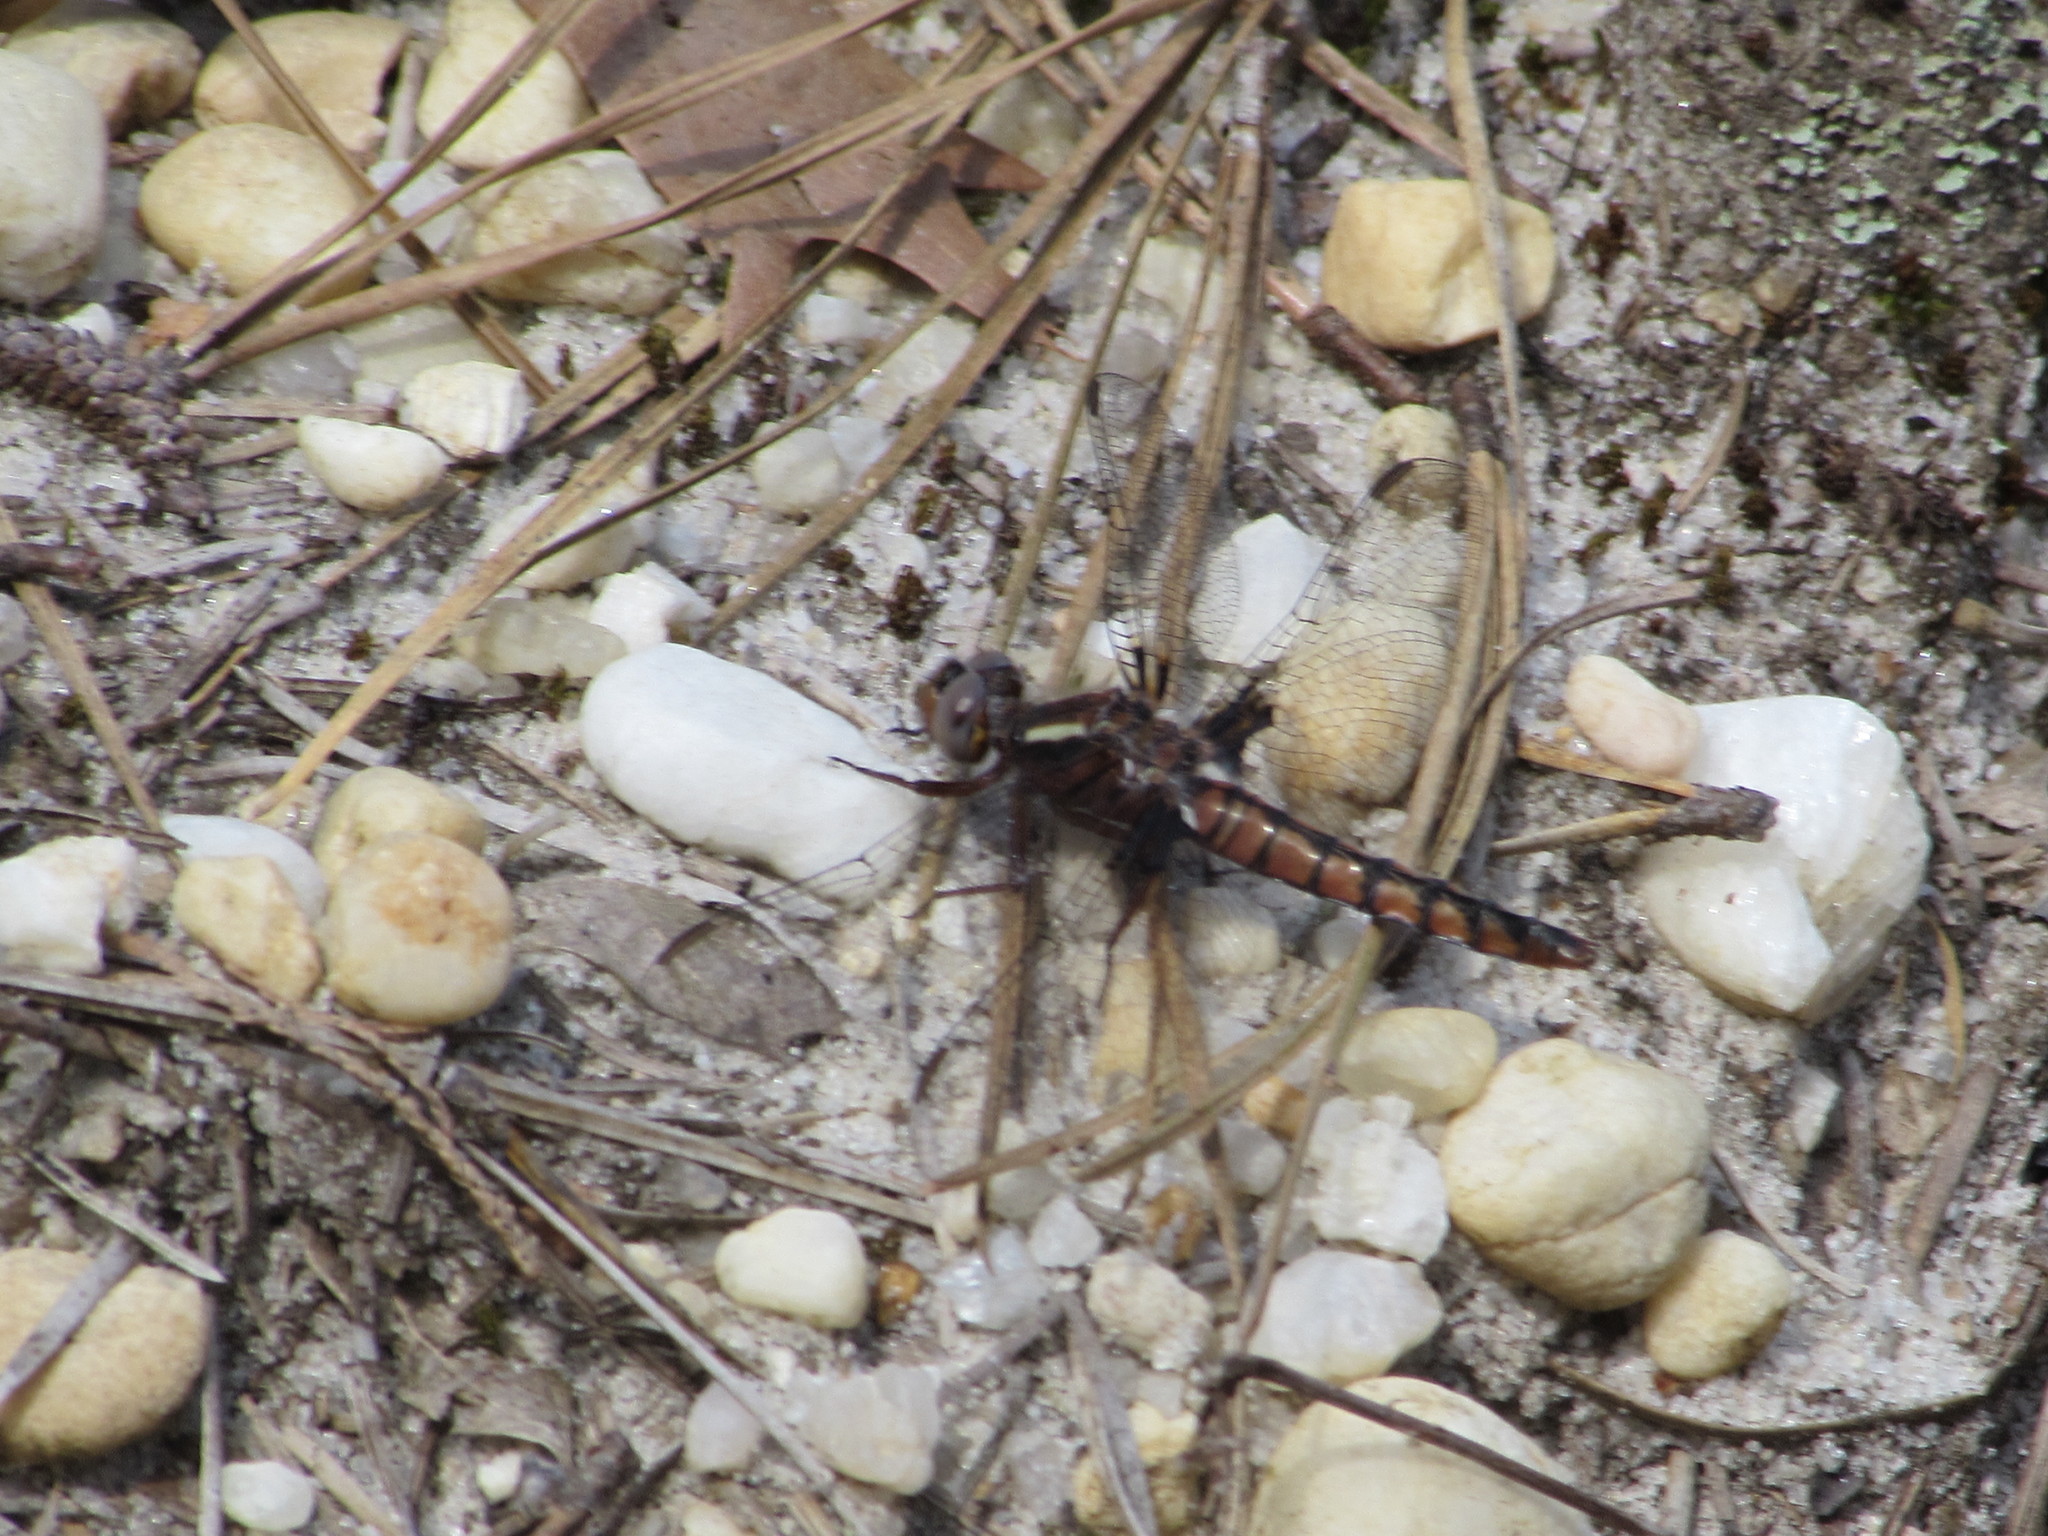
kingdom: Animalia
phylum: Arthropoda
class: Insecta
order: Odonata
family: Libellulidae
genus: Ladona
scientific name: Ladona deplanata
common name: Blue corporal
